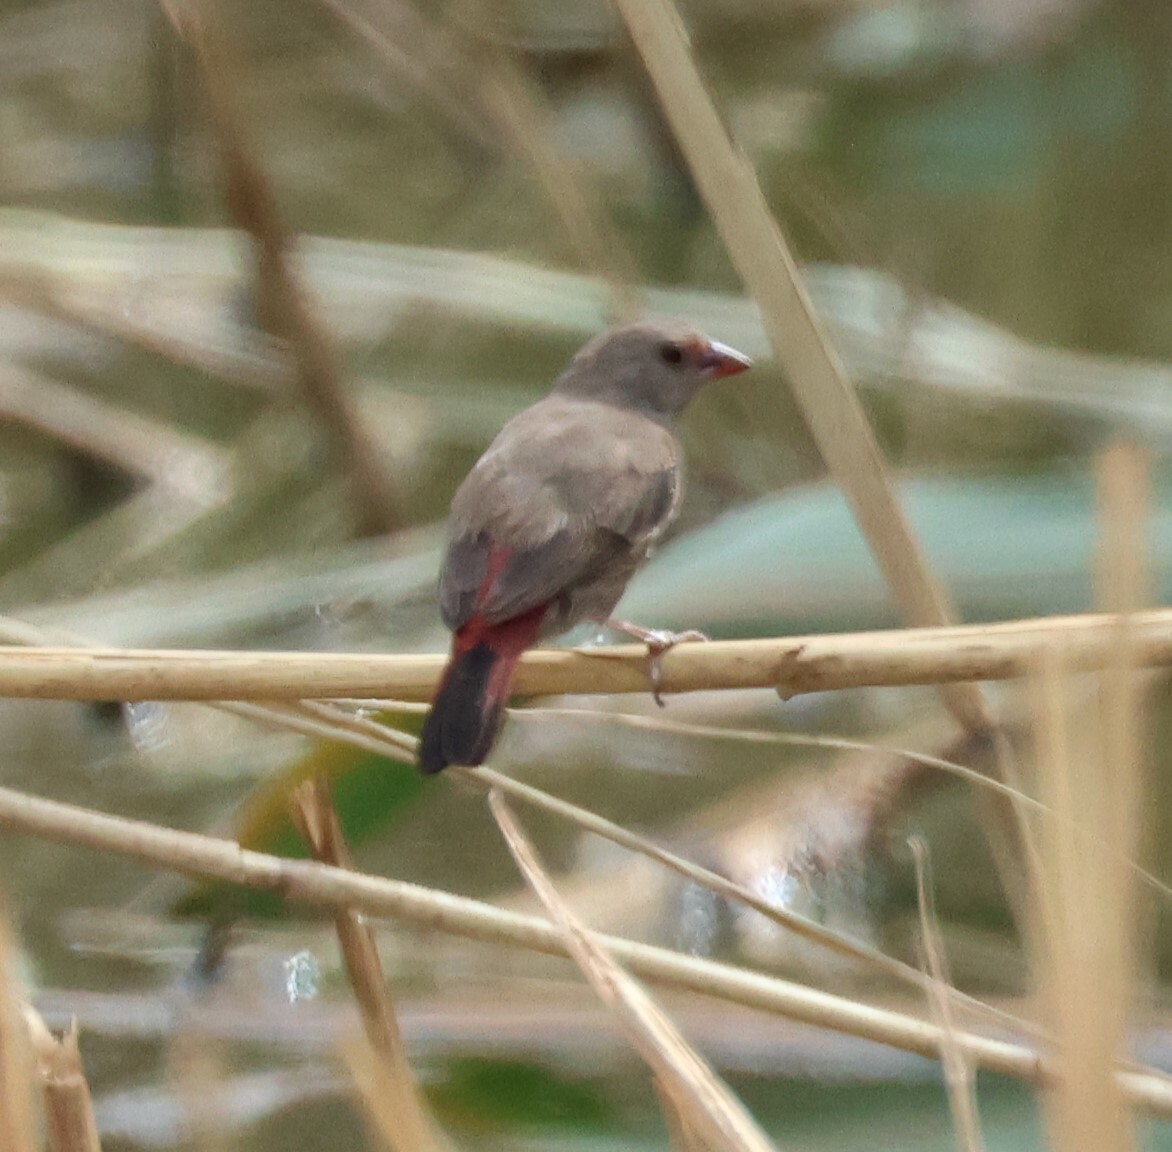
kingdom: Animalia
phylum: Chordata
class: Aves
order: Passeriformes
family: Estrildidae
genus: Lagonosticta
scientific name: Lagonosticta senegala
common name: Red-billed firefinch
